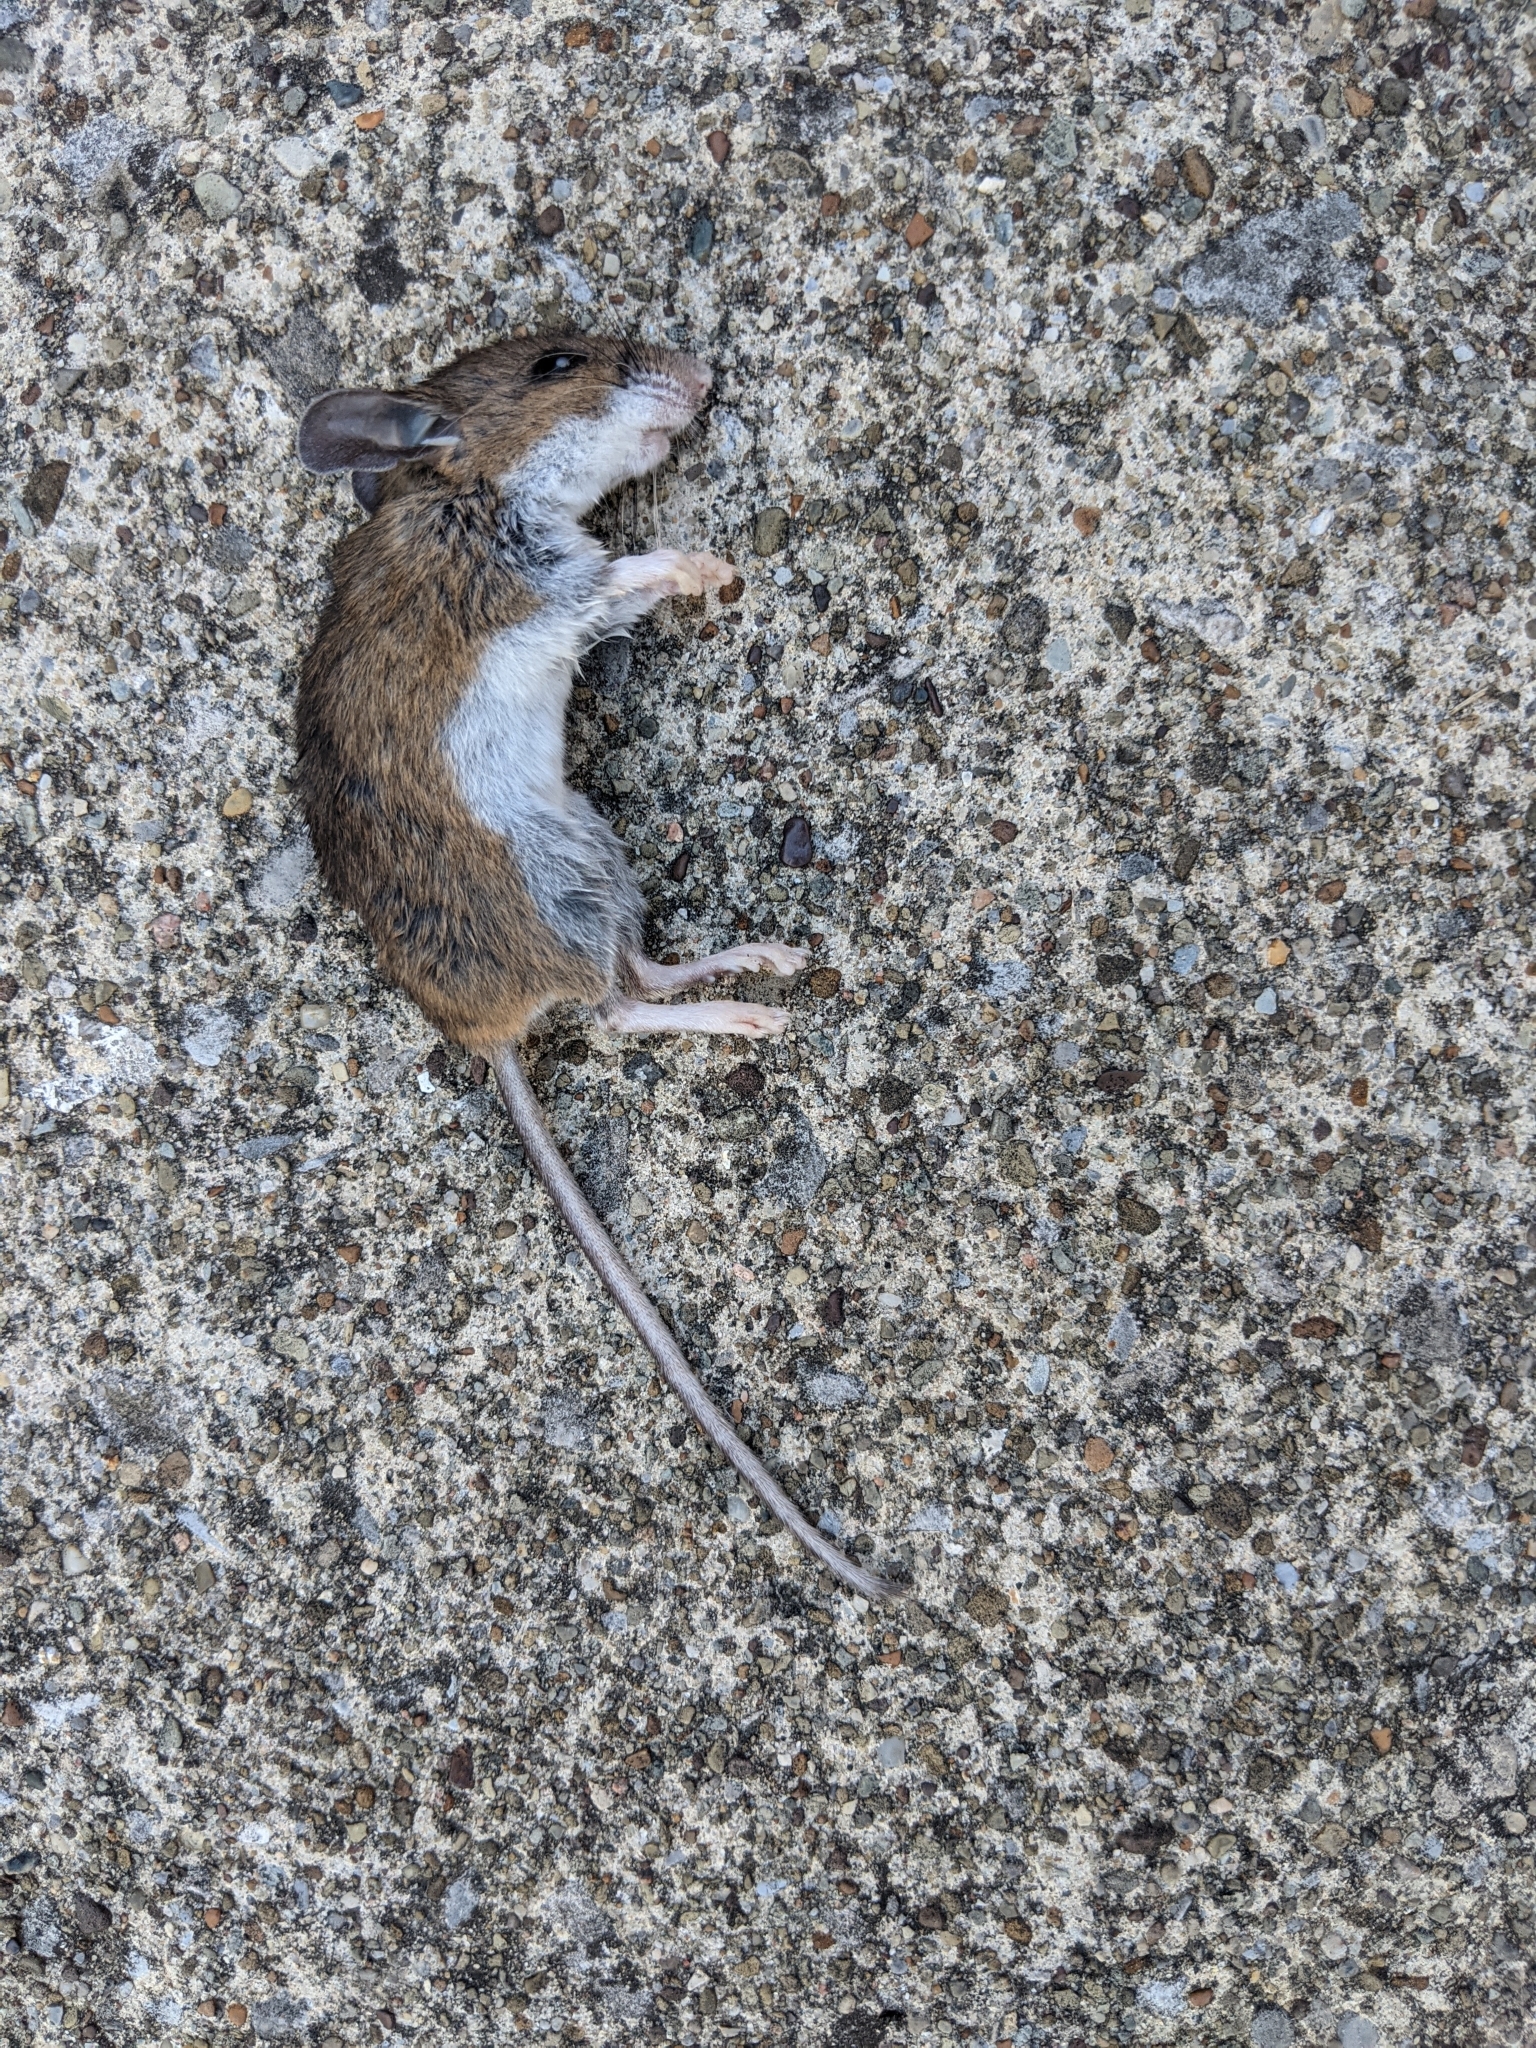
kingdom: Animalia
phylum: Chordata
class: Mammalia
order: Rodentia
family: Cricetidae
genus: Peromyscus
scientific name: Peromyscus maniculatus
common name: Deer mouse
